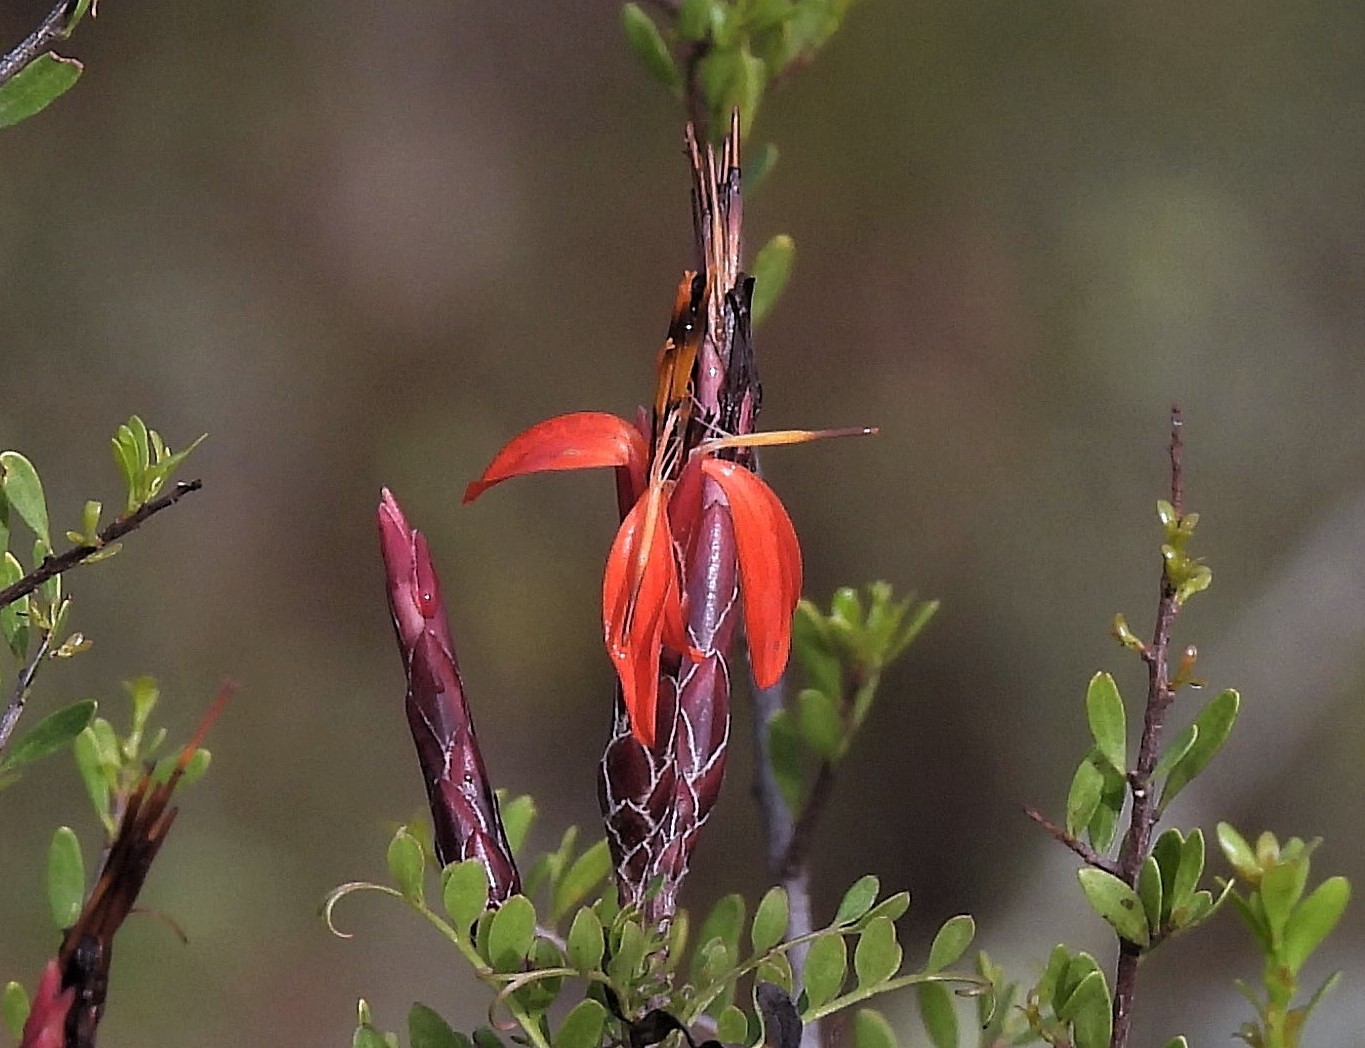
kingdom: Plantae
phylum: Tracheophyta
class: Magnoliopsida
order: Asterales
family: Asteraceae
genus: Mutisia
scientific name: Mutisia acuminata
